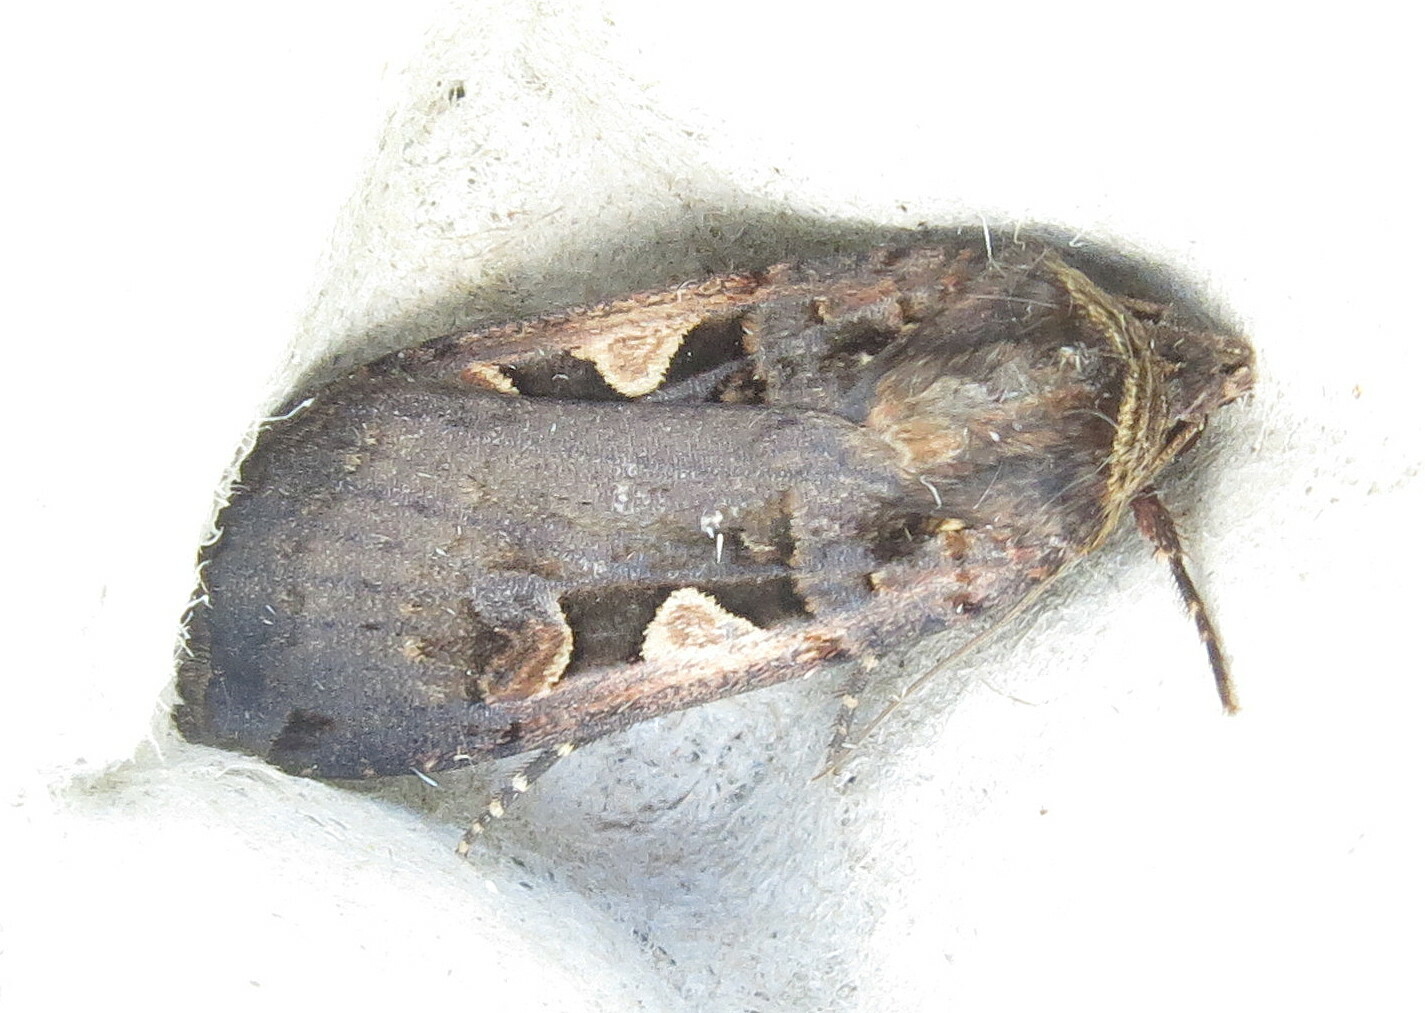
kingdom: Animalia
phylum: Arthropoda
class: Insecta
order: Lepidoptera
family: Noctuidae
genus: Xestia
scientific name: Xestia c-nigrum
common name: Setaceous hebrew character
